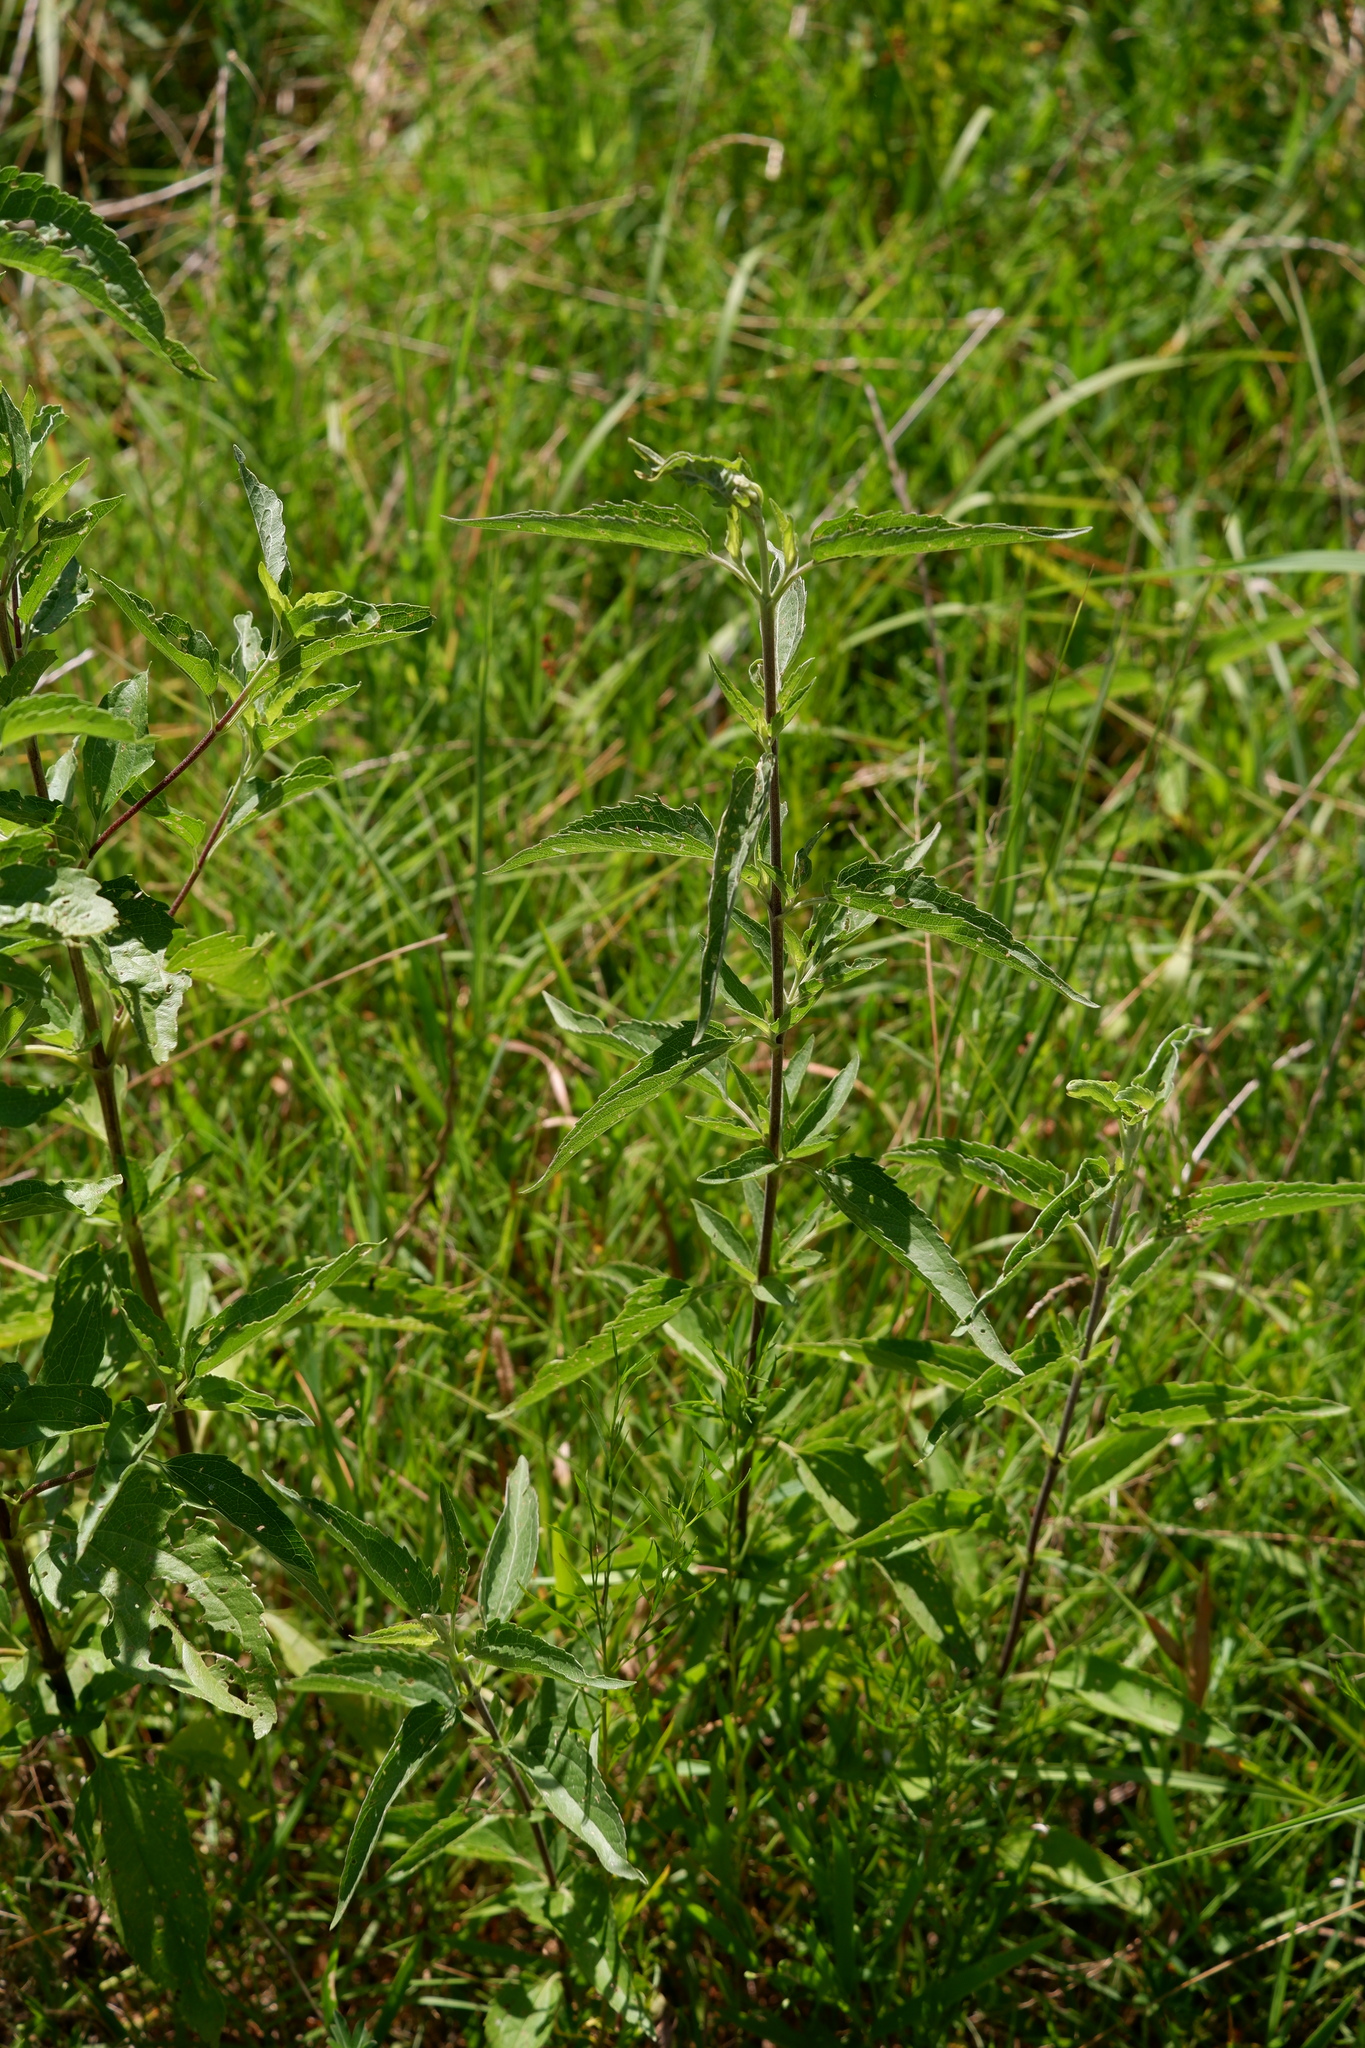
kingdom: Plantae
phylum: Tracheophyta
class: Magnoliopsida
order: Asterales
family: Asteraceae
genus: Eupatorium
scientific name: Eupatorium serotinum
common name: Late boneset
